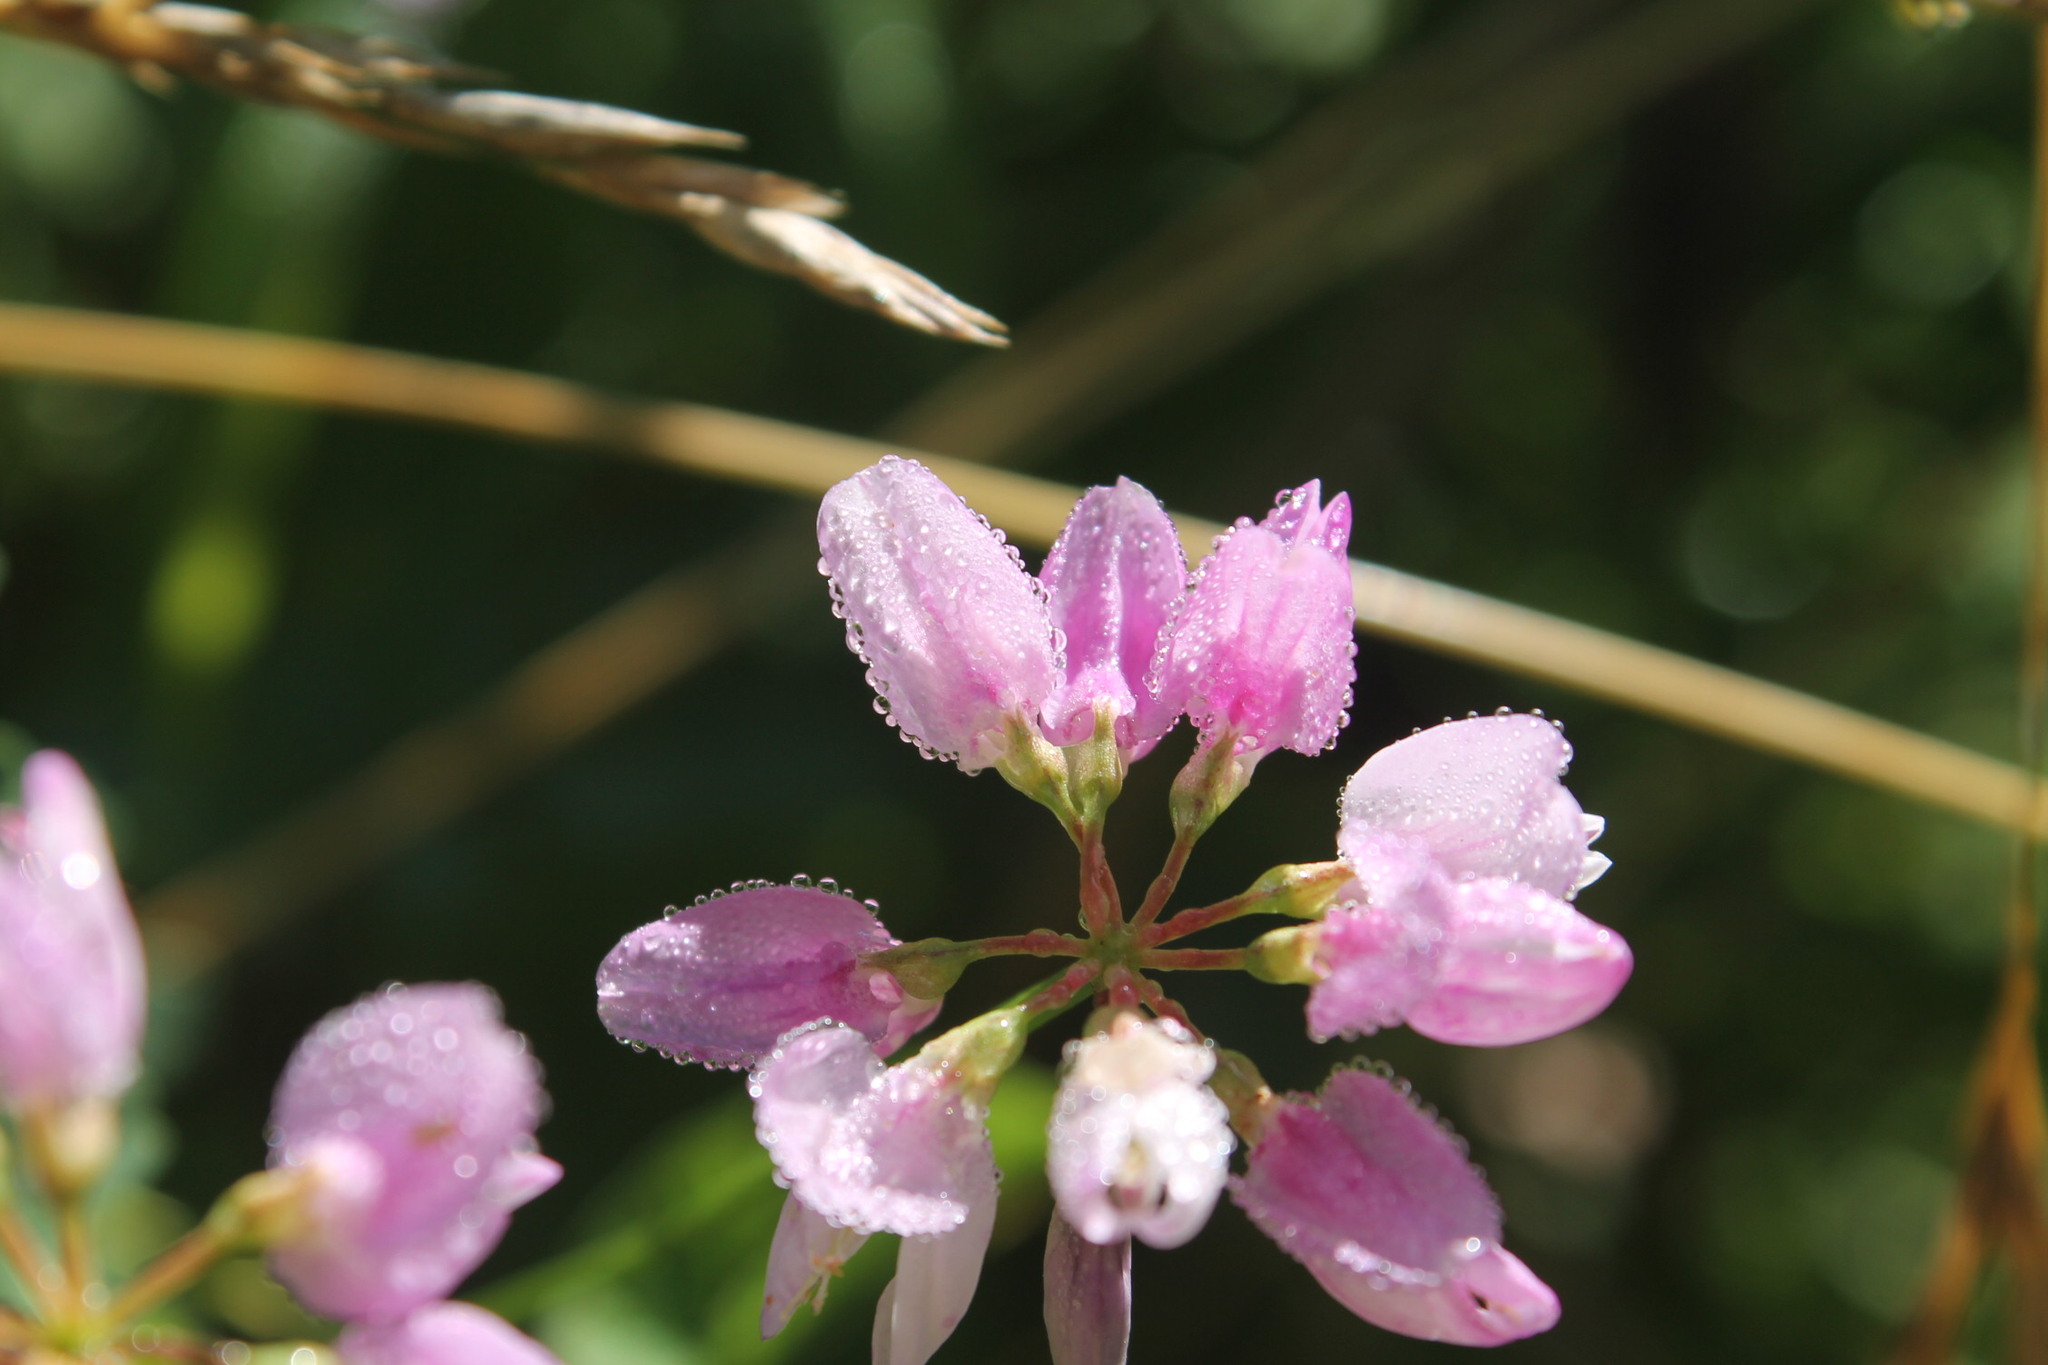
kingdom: Plantae
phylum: Tracheophyta
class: Magnoliopsida
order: Fabales
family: Fabaceae
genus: Coronilla
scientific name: Coronilla varia
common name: Crownvetch
